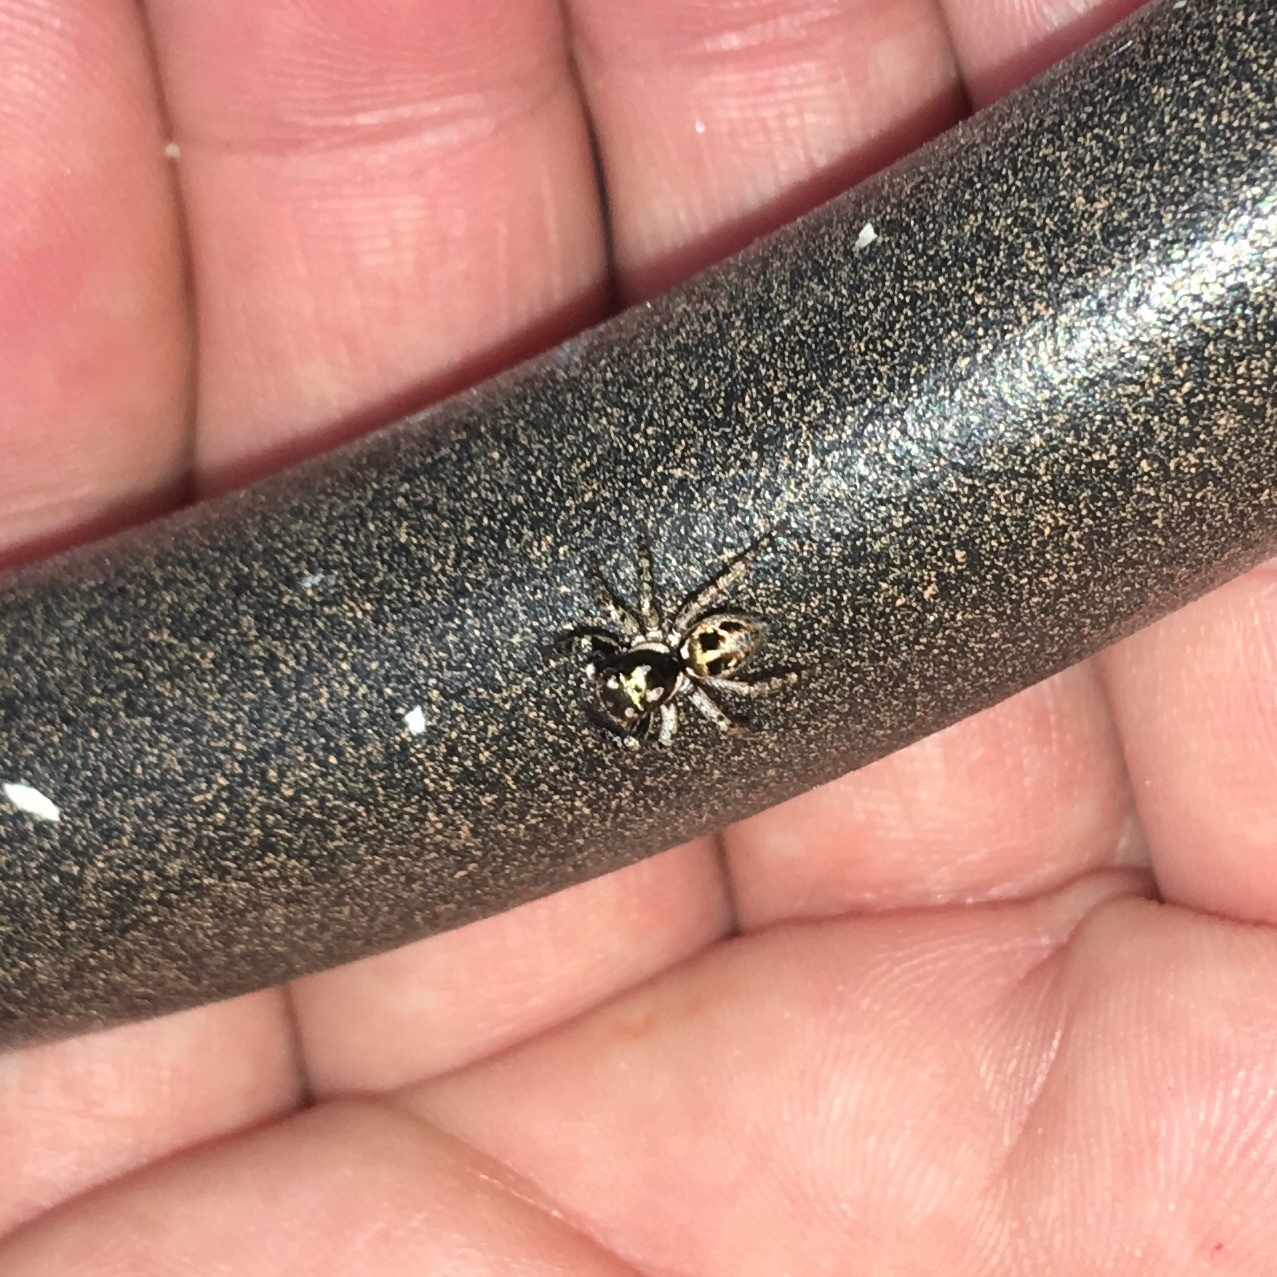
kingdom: Animalia
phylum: Arthropoda
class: Arachnida
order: Araneae
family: Salticidae
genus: Anasaitis
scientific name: Anasaitis canosa
